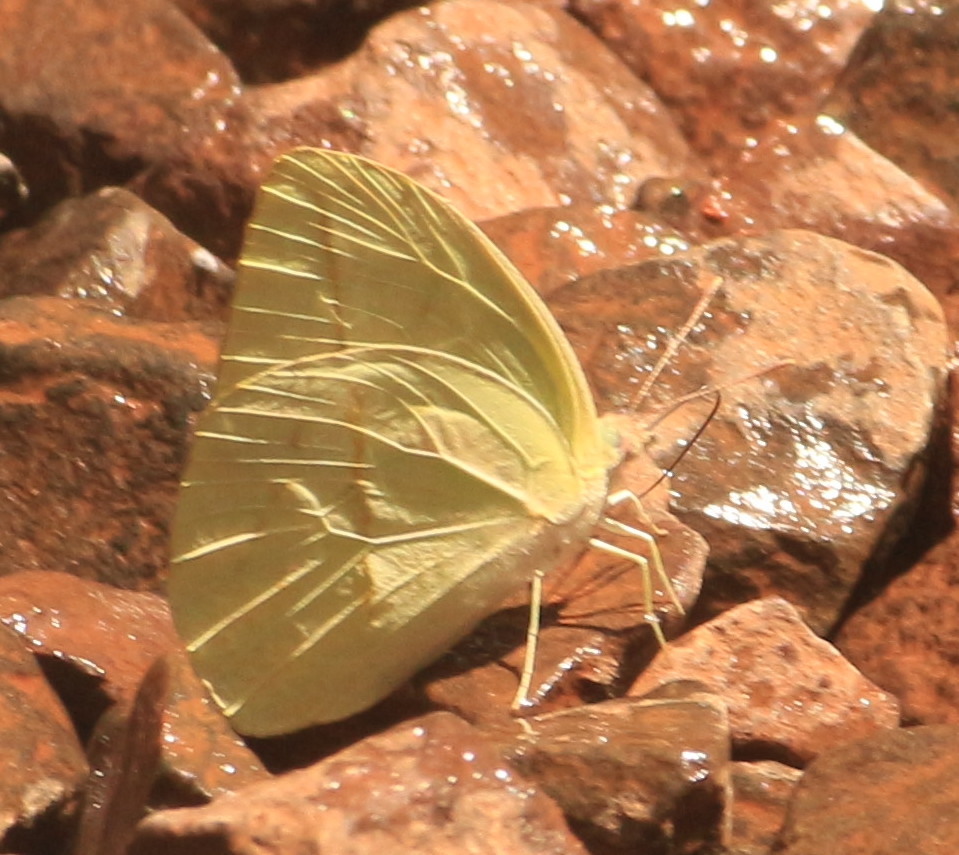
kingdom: Animalia
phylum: Arthropoda
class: Insecta
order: Lepidoptera
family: Pieridae
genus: Rhabdodryas
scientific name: Rhabdodryas trite
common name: Straight-lined sulphur
